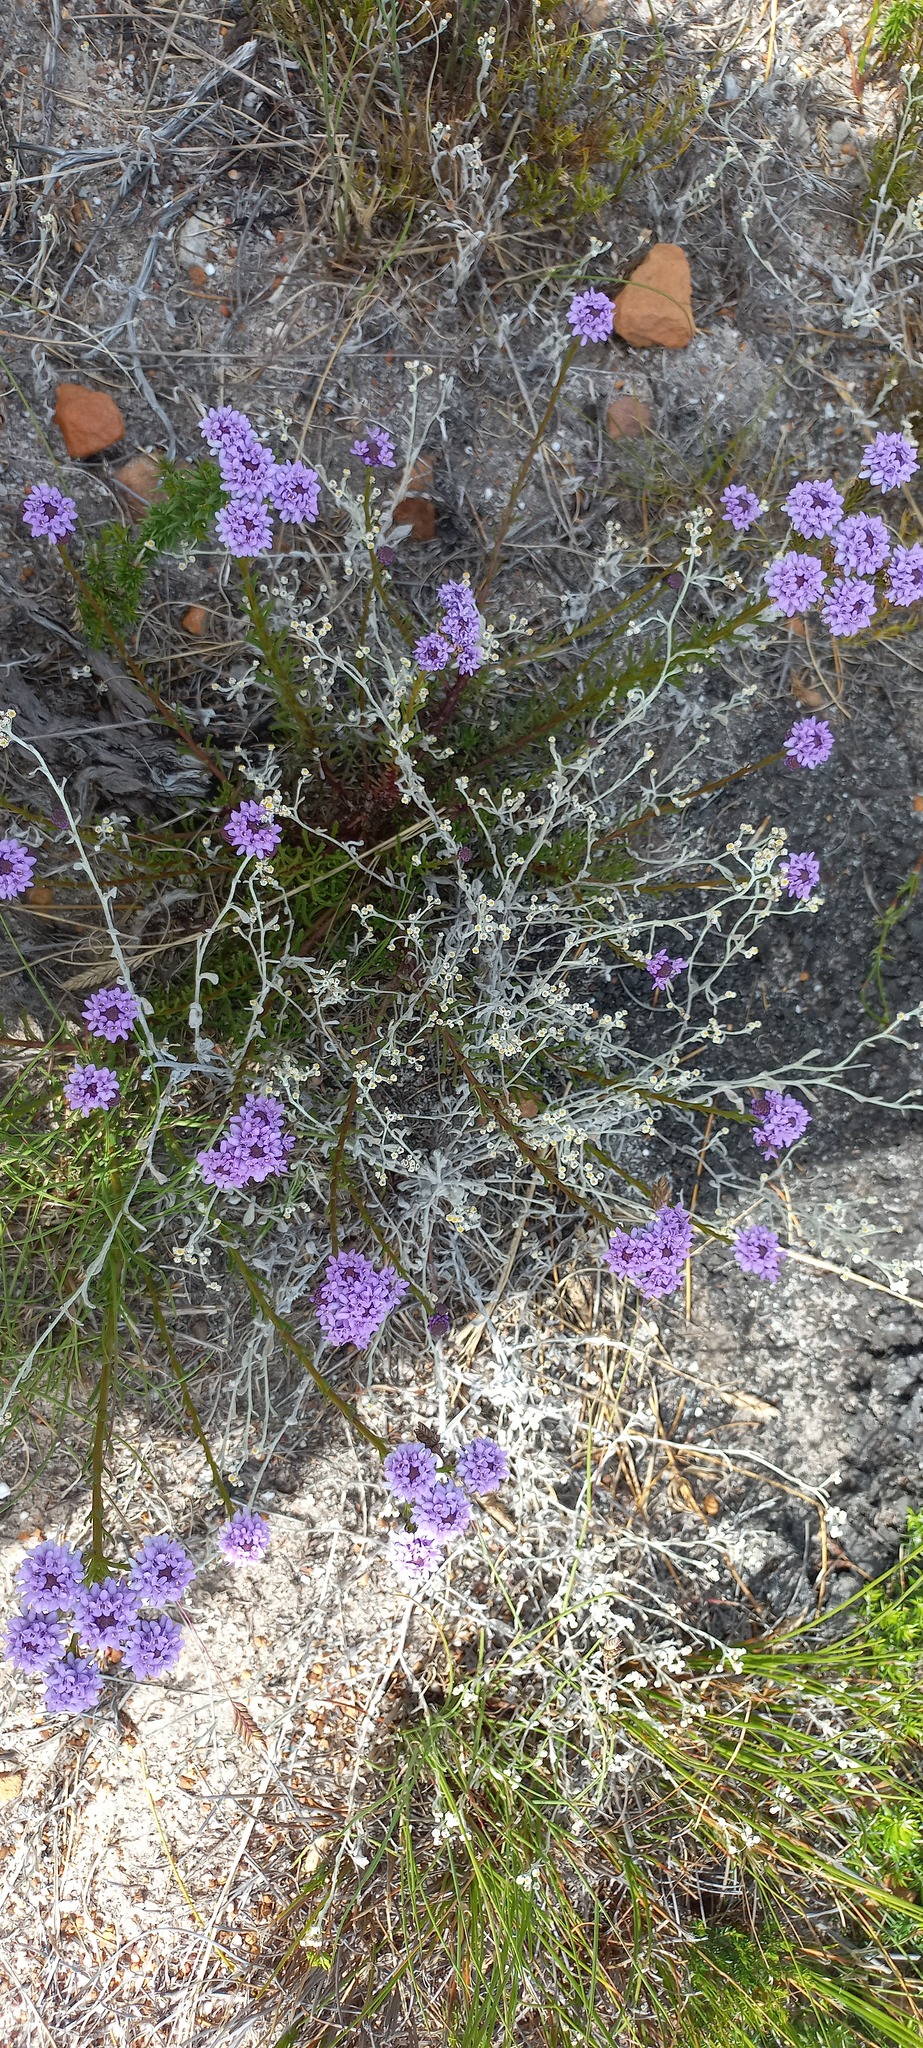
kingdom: Plantae
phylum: Tracheophyta
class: Magnoliopsida
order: Lamiales
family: Scrophulariaceae
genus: Pseudoselago
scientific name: Pseudoselago spuria
